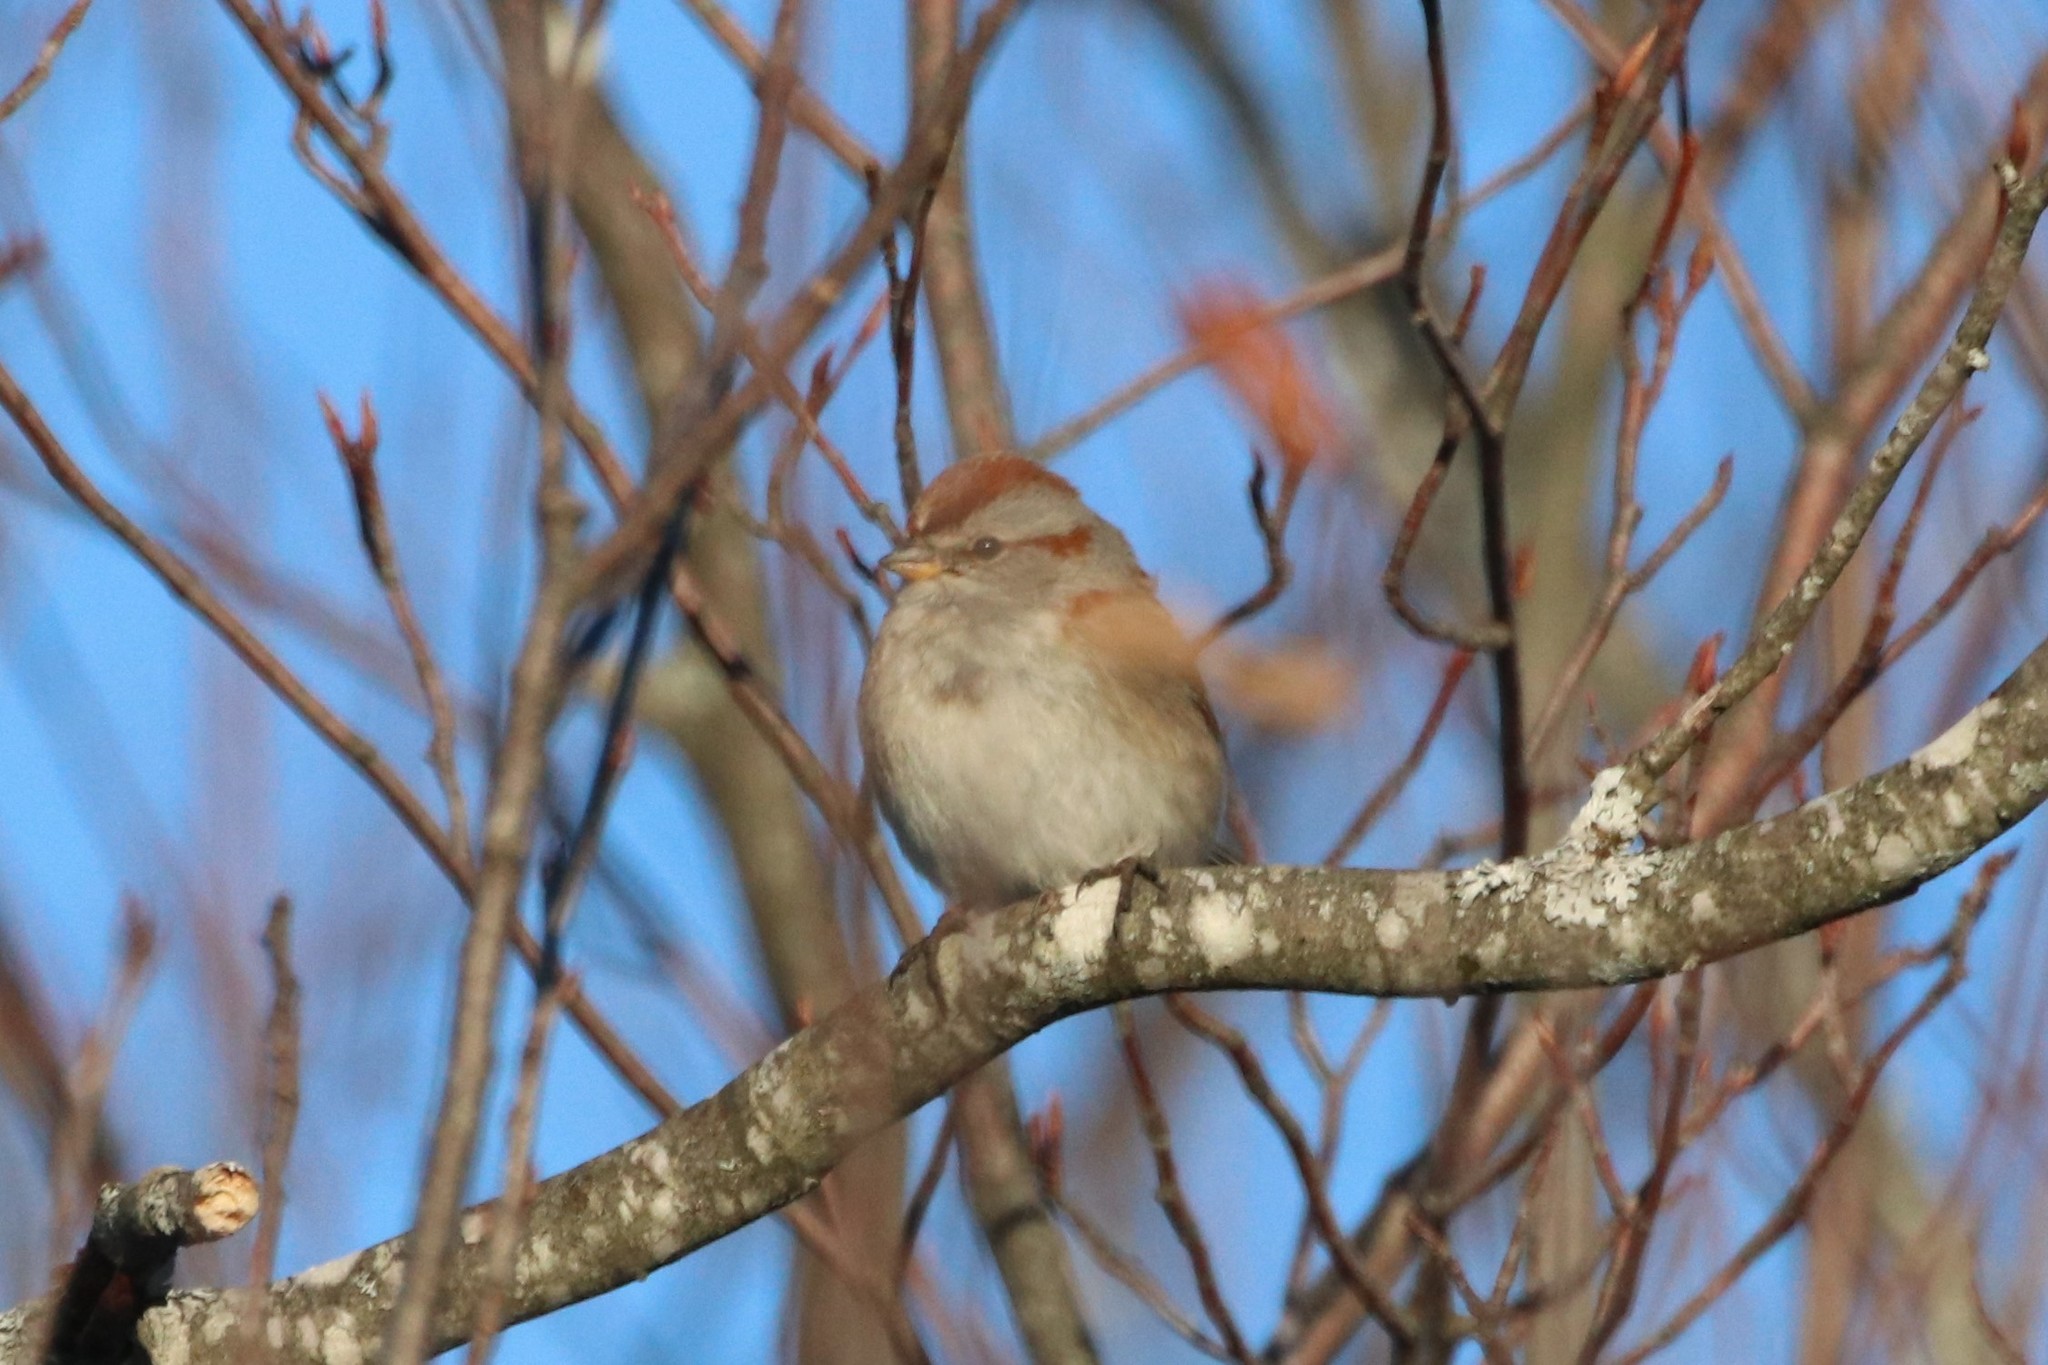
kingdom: Animalia
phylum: Chordata
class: Aves
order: Passeriformes
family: Passerellidae
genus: Spizelloides
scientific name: Spizelloides arborea
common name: American tree sparrow
